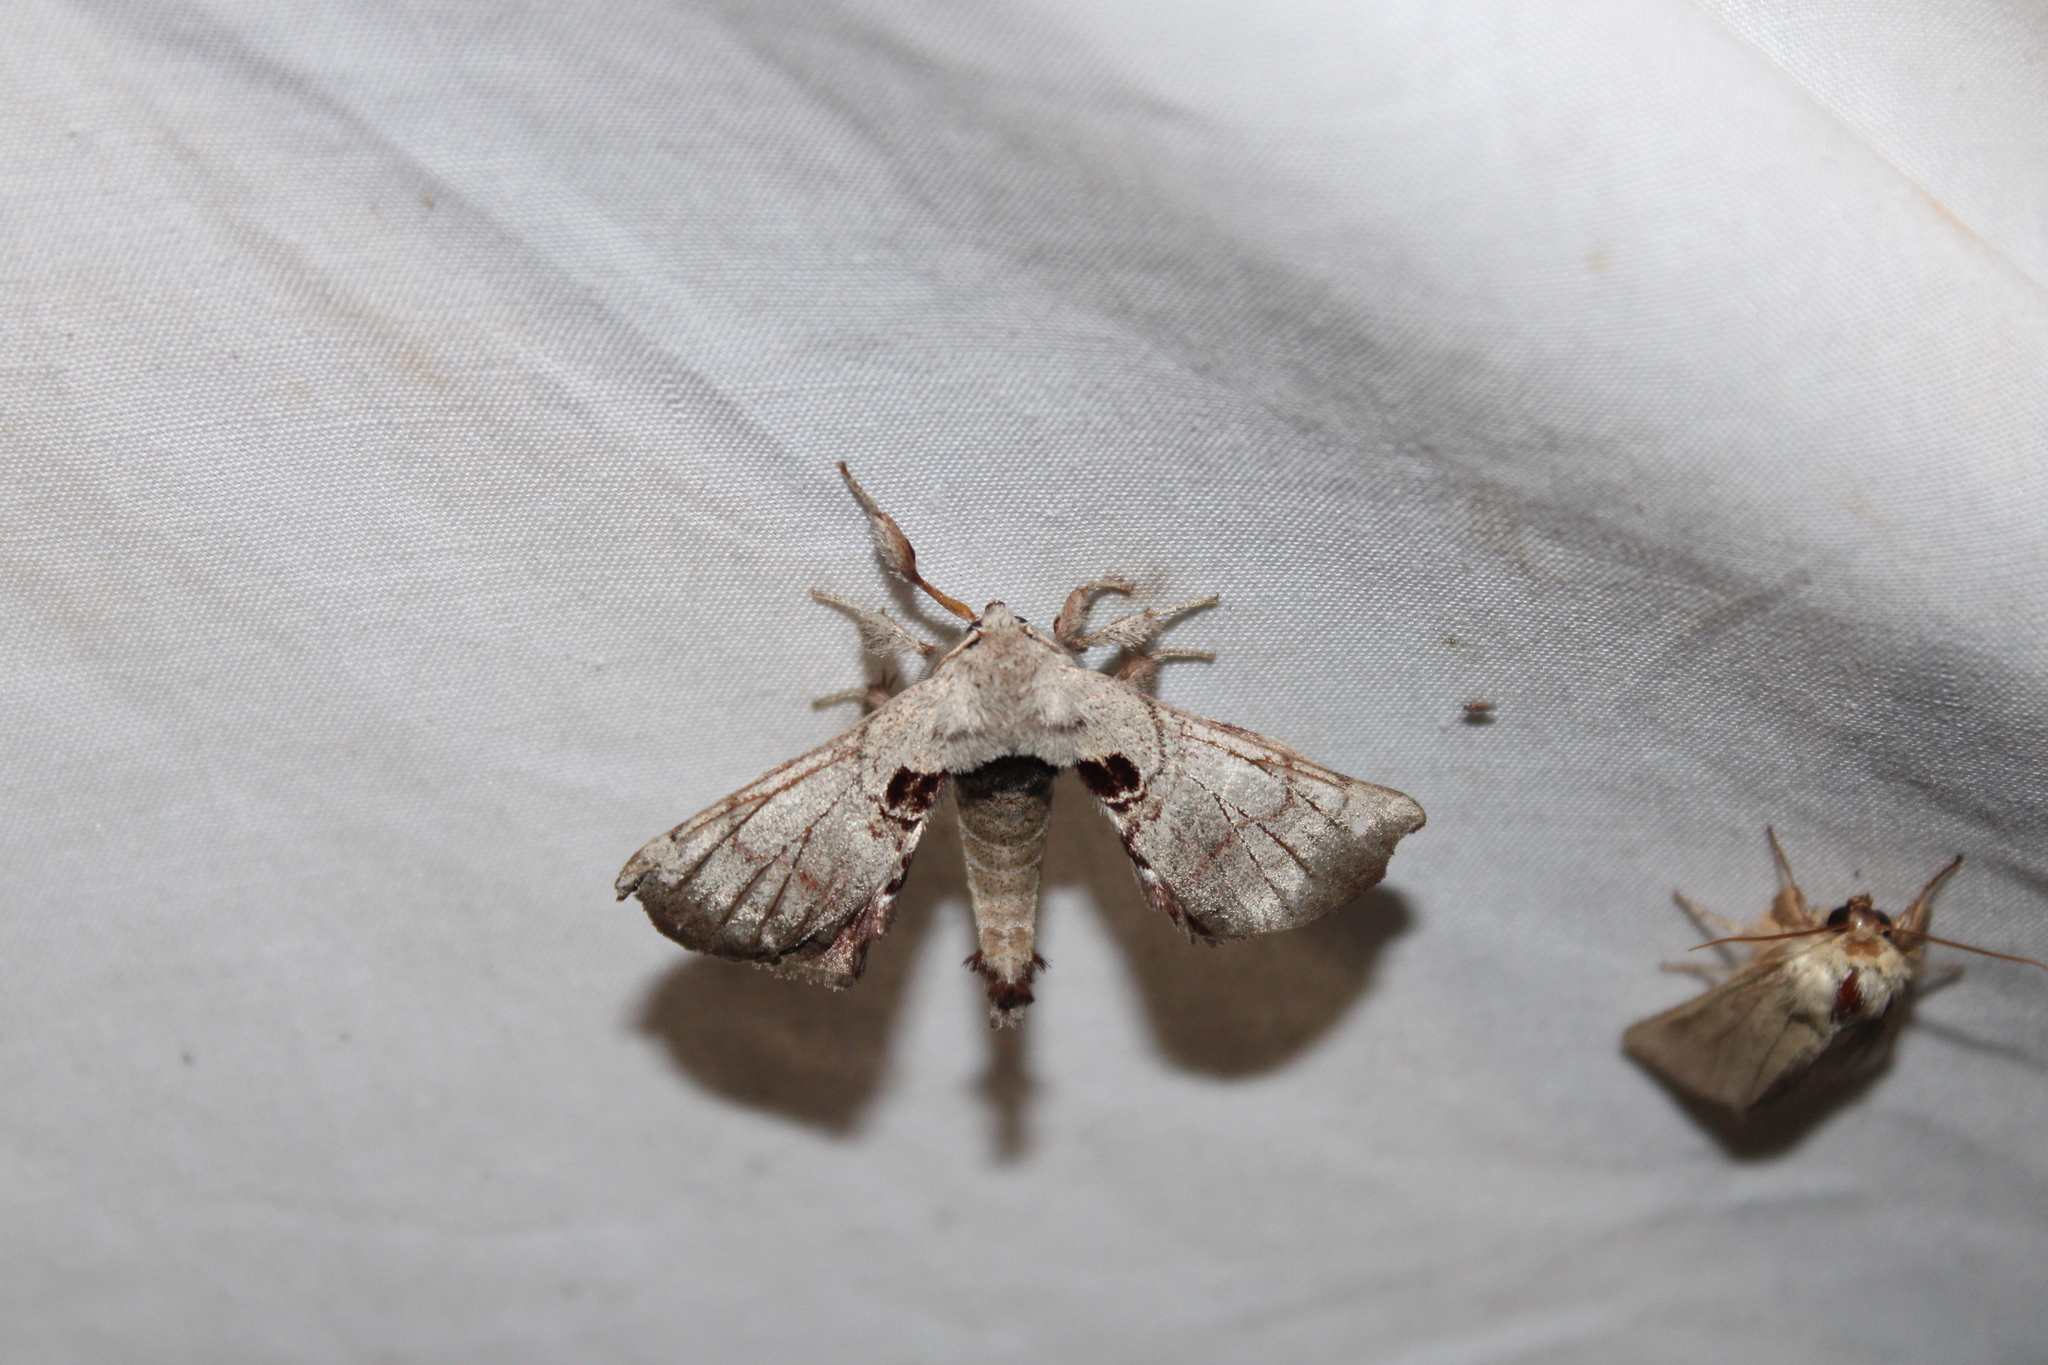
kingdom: Animalia
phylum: Arthropoda
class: Insecta
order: Lepidoptera
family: Apatelodidae
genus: Hygrochroa
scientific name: Hygrochroa Apatelodes torrefacta
